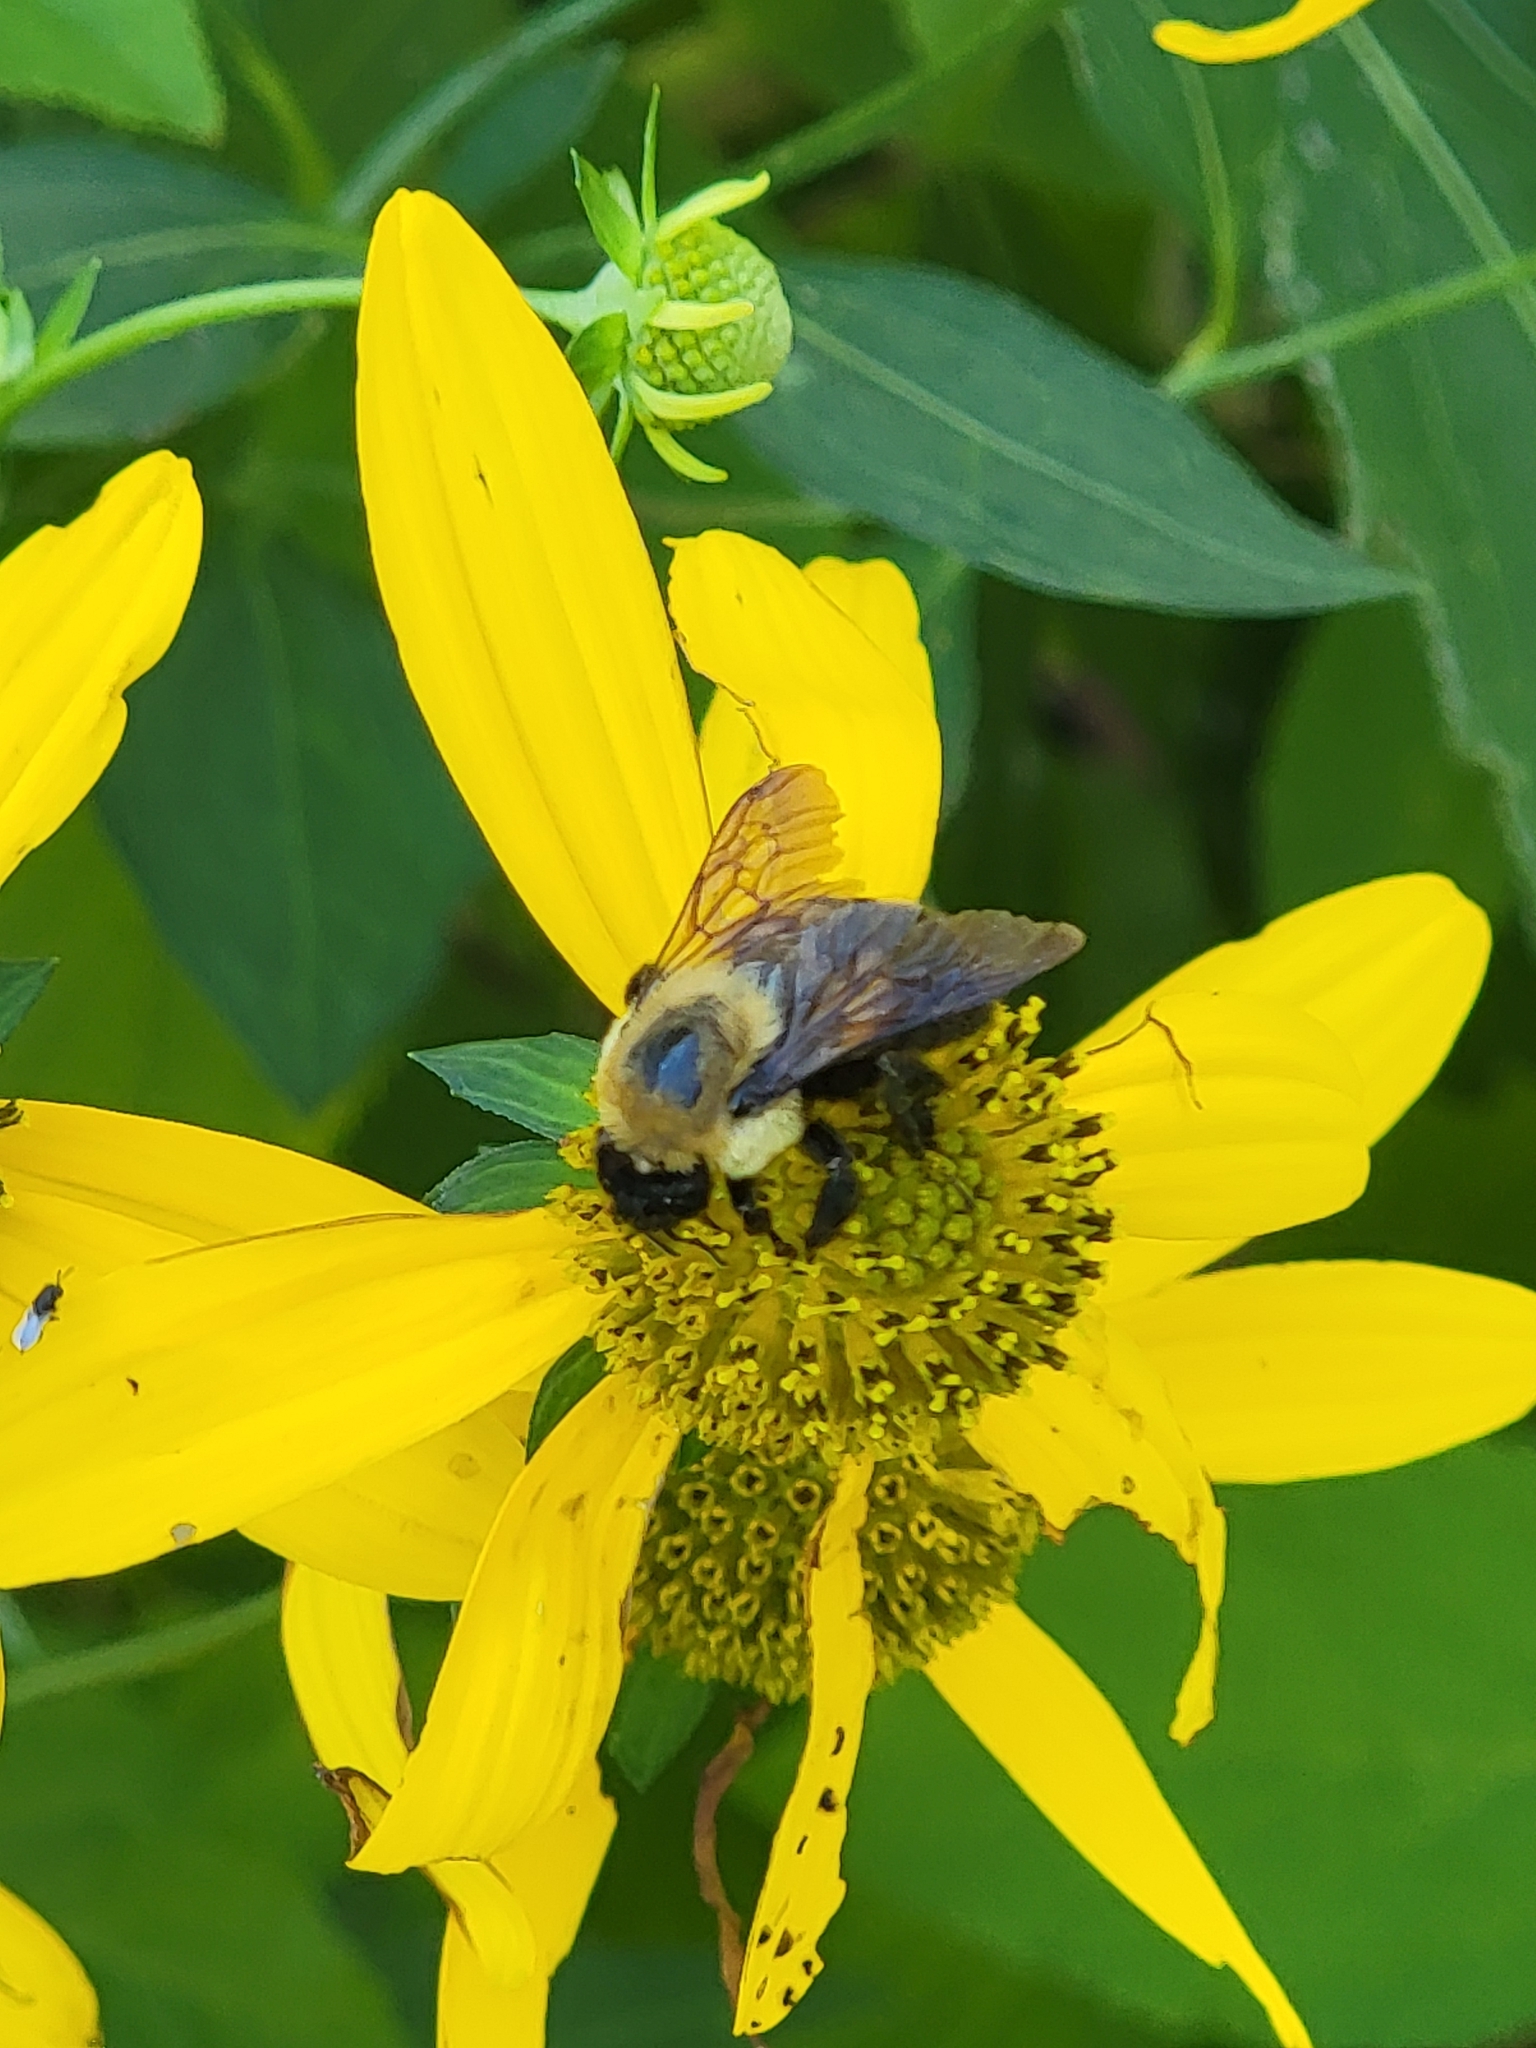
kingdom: Animalia
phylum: Arthropoda
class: Insecta
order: Hymenoptera
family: Apidae
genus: Bombus
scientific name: Bombus griseocollis
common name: Brown-belted bumble bee
